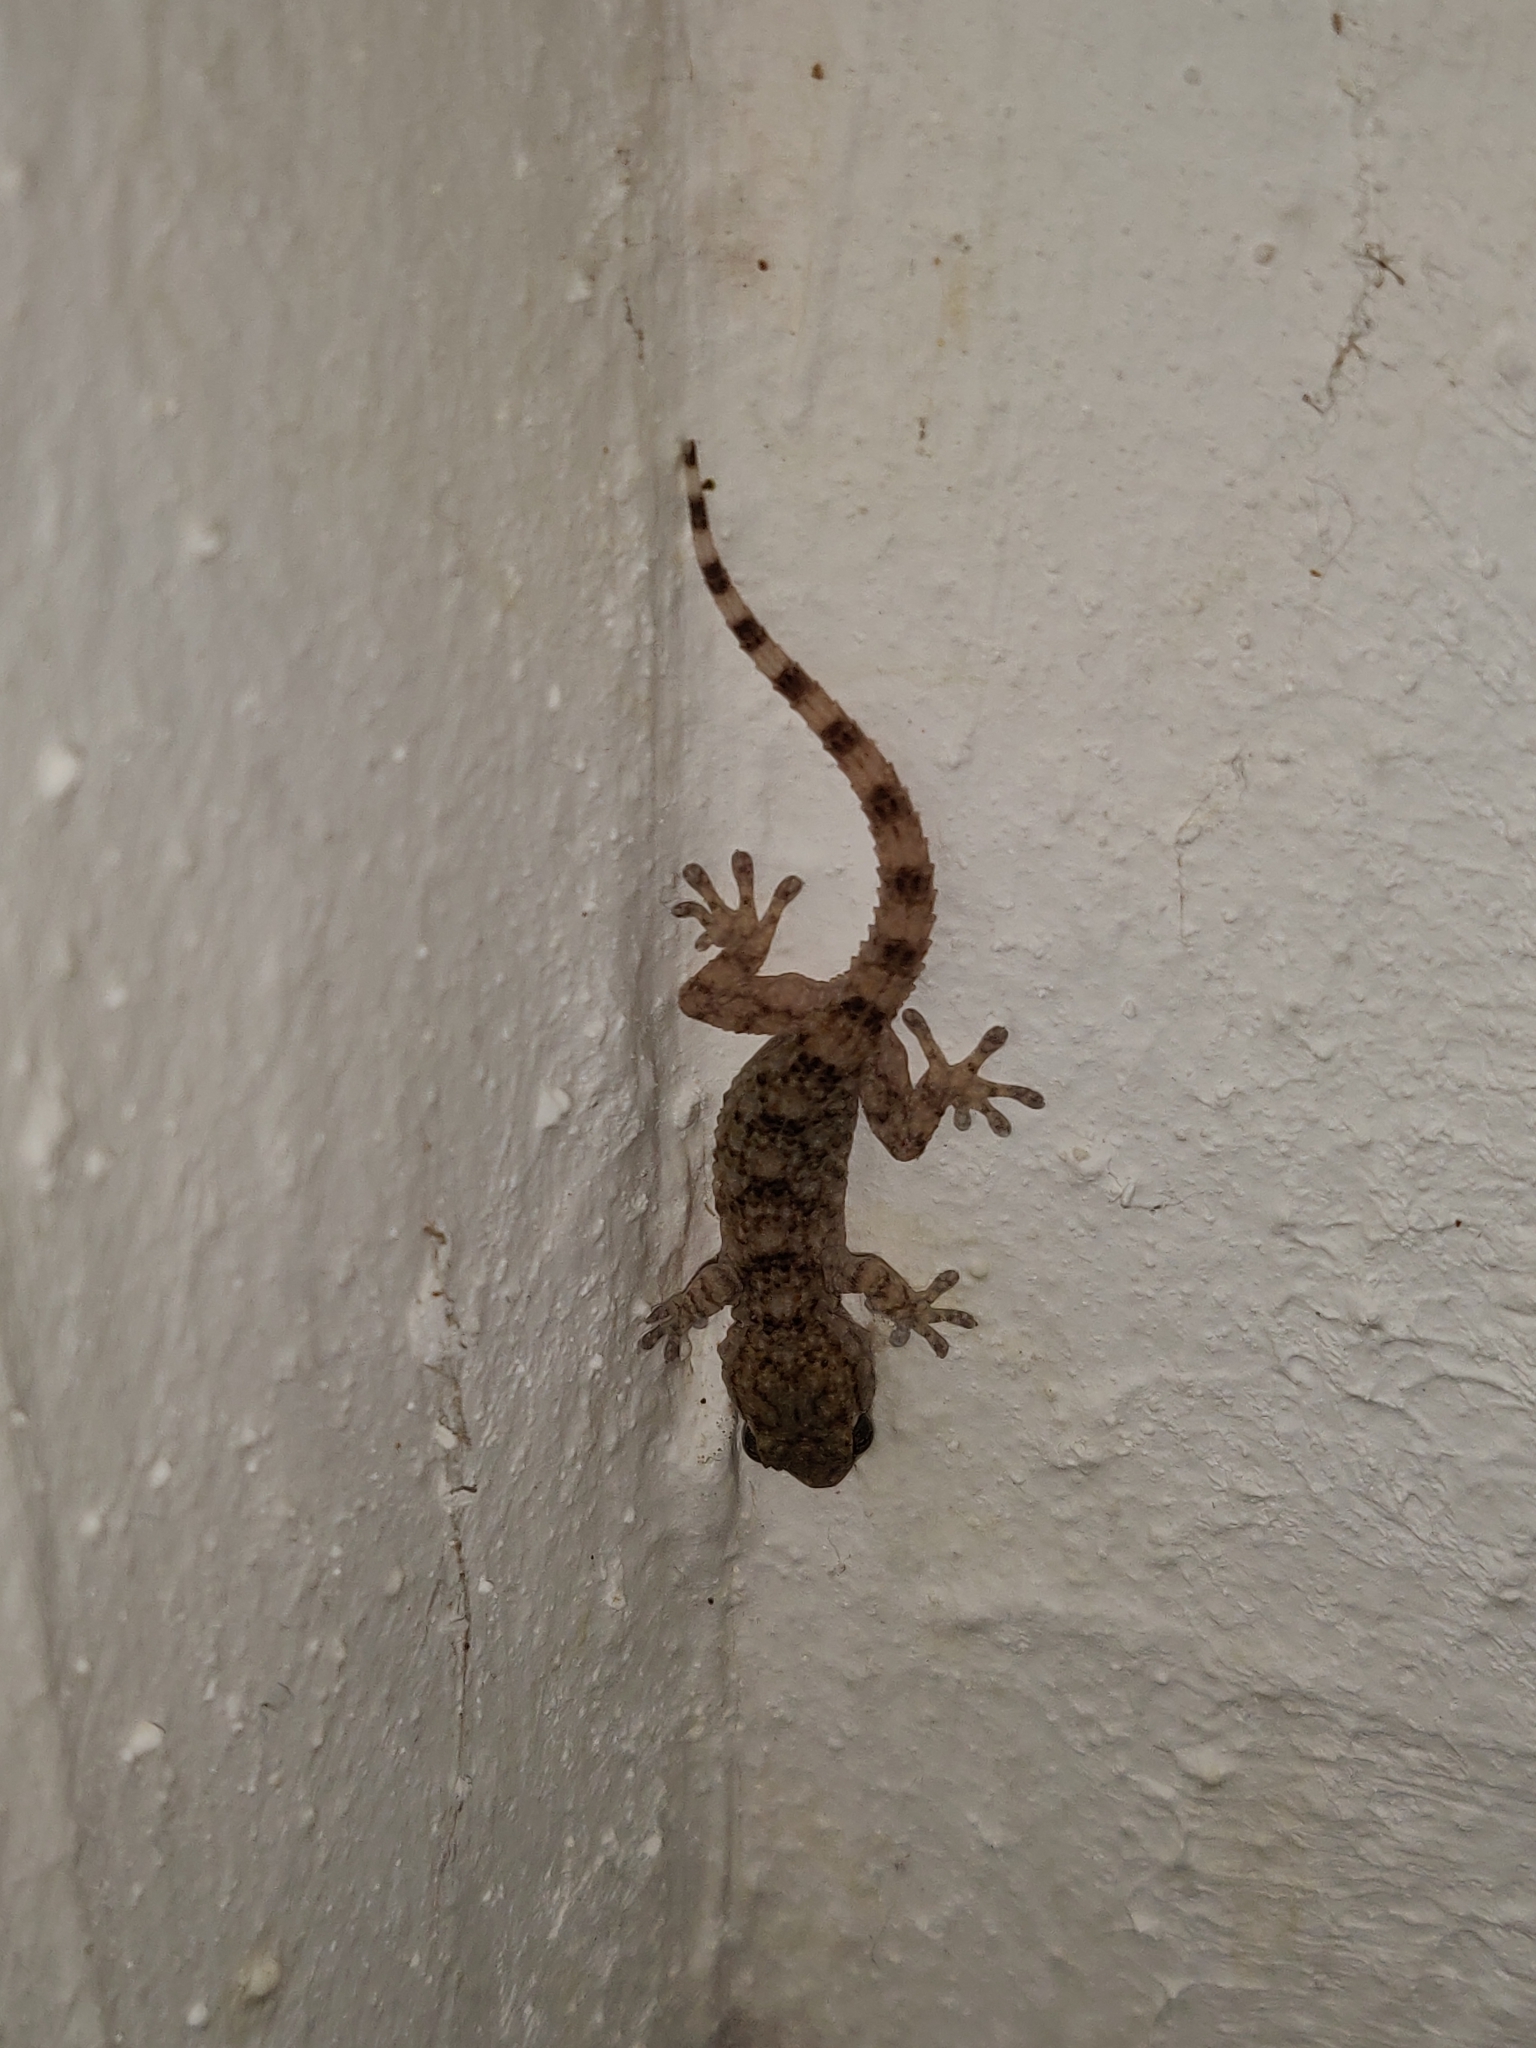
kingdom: Animalia
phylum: Chordata
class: Squamata
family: Phyllodactylidae
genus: Tarentola
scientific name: Tarentola mauritanica
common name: Moorish gecko
